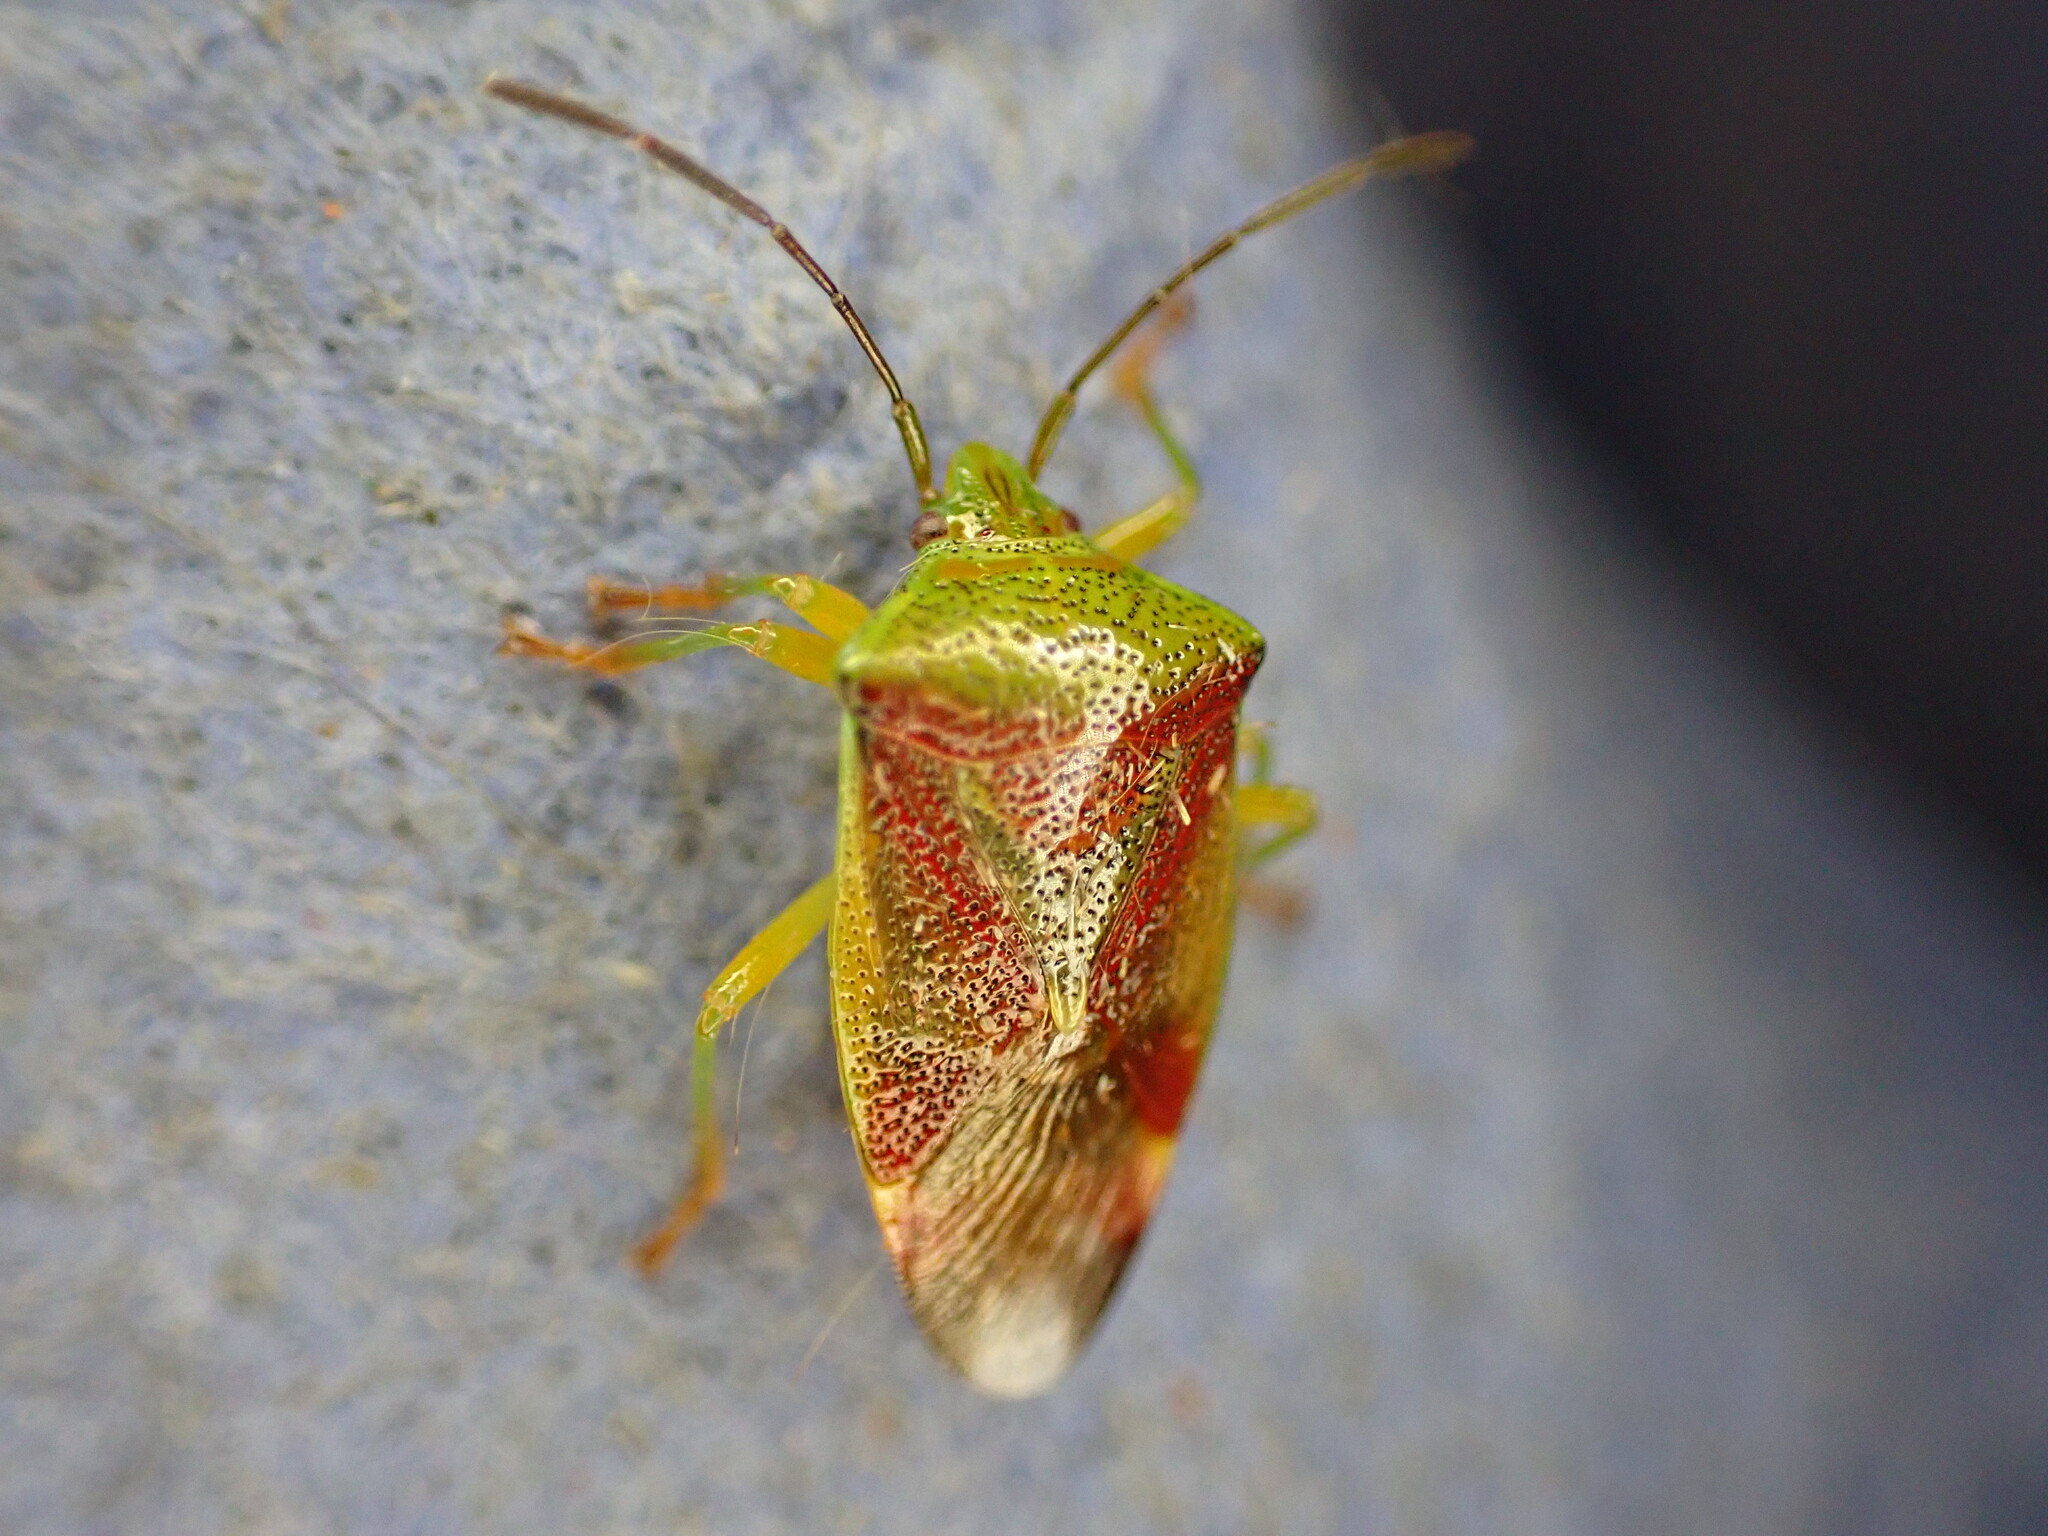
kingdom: Animalia
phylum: Arthropoda
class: Insecta
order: Hemiptera
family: Acanthosomatidae
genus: Elasmostethus
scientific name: Elasmostethus interstinctus
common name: Birch shieldbug
